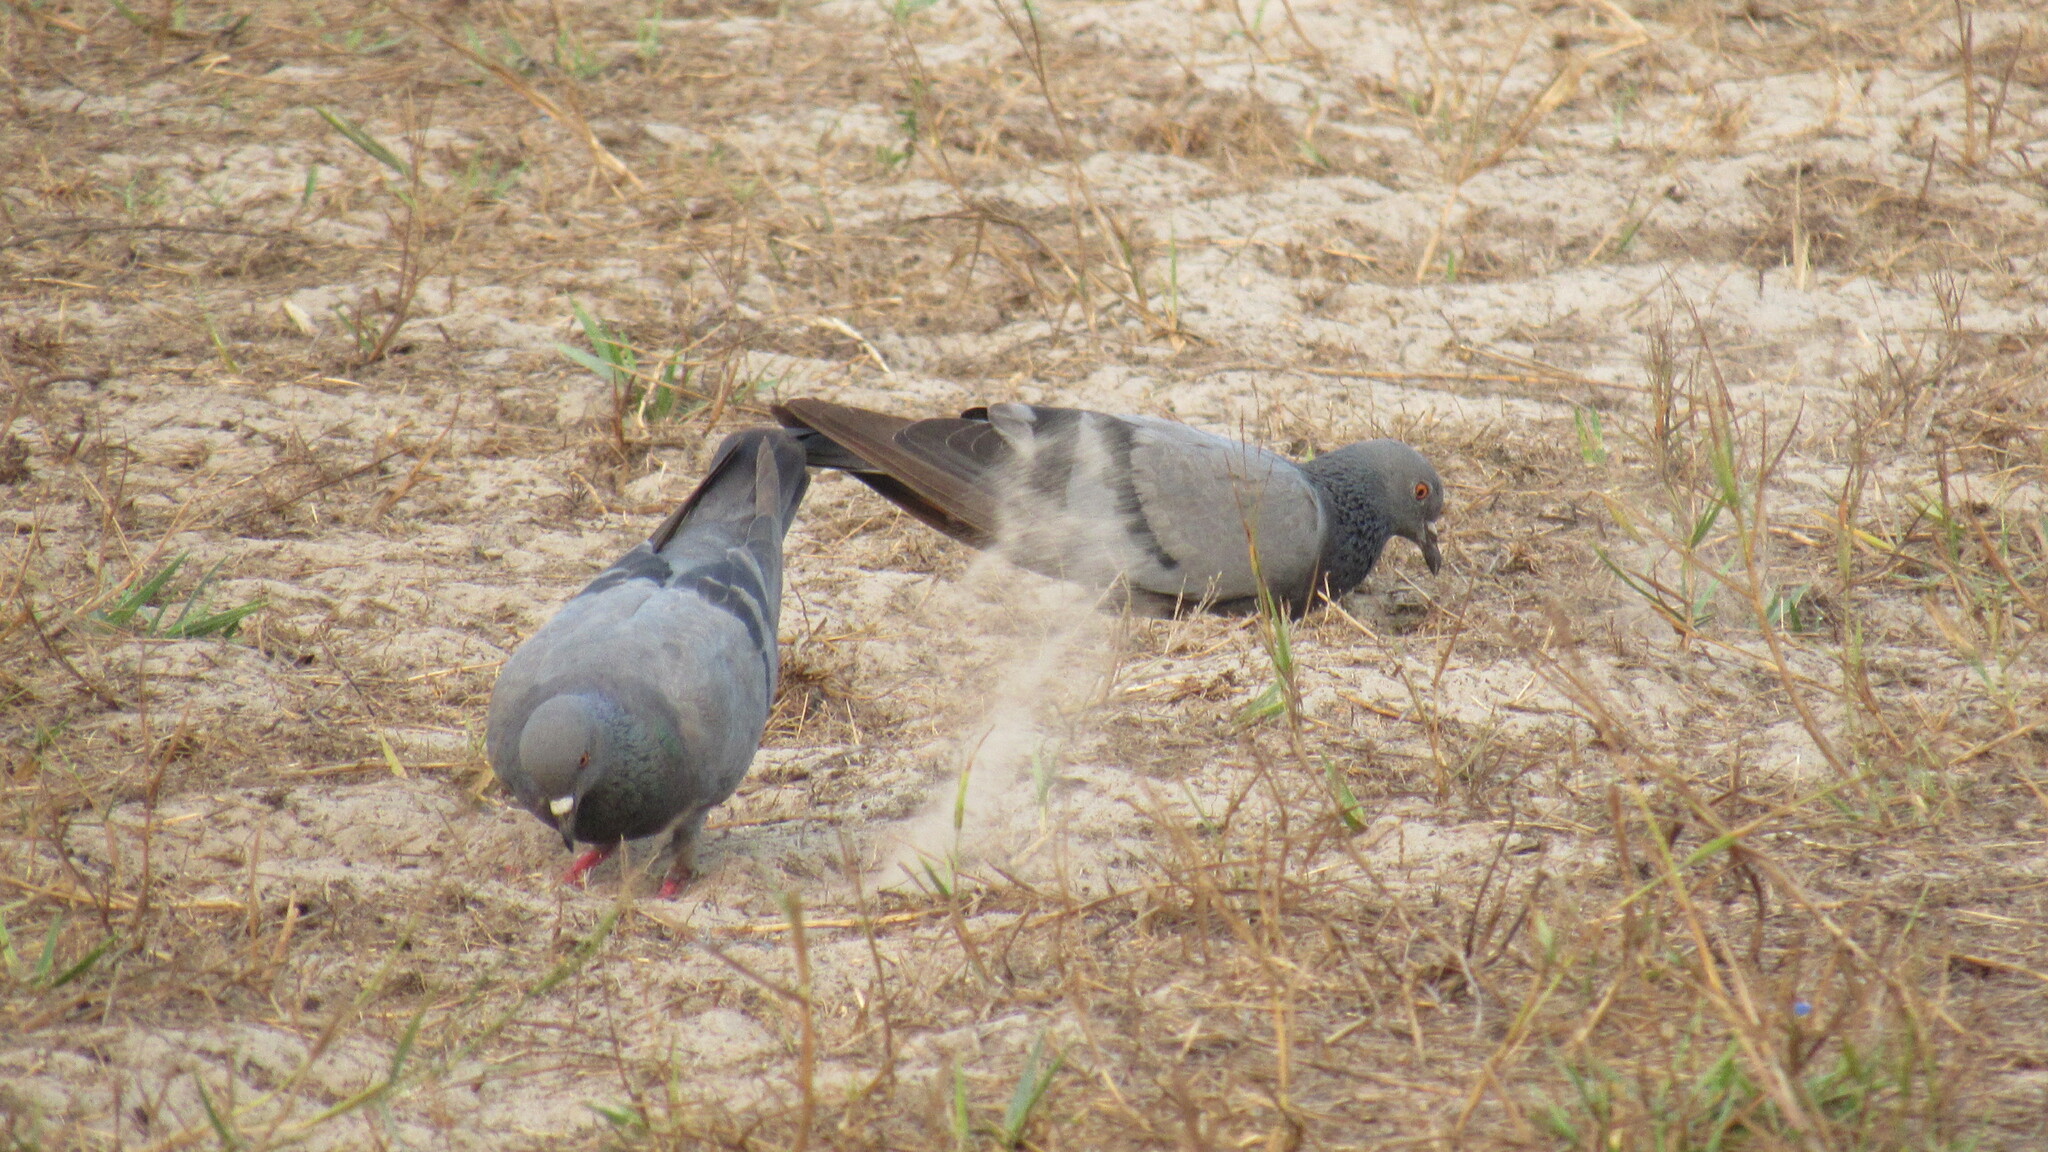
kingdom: Animalia
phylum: Chordata
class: Aves
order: Columbiformes
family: Columbidae
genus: Columba
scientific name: Columba livia
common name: Rock pigeon
